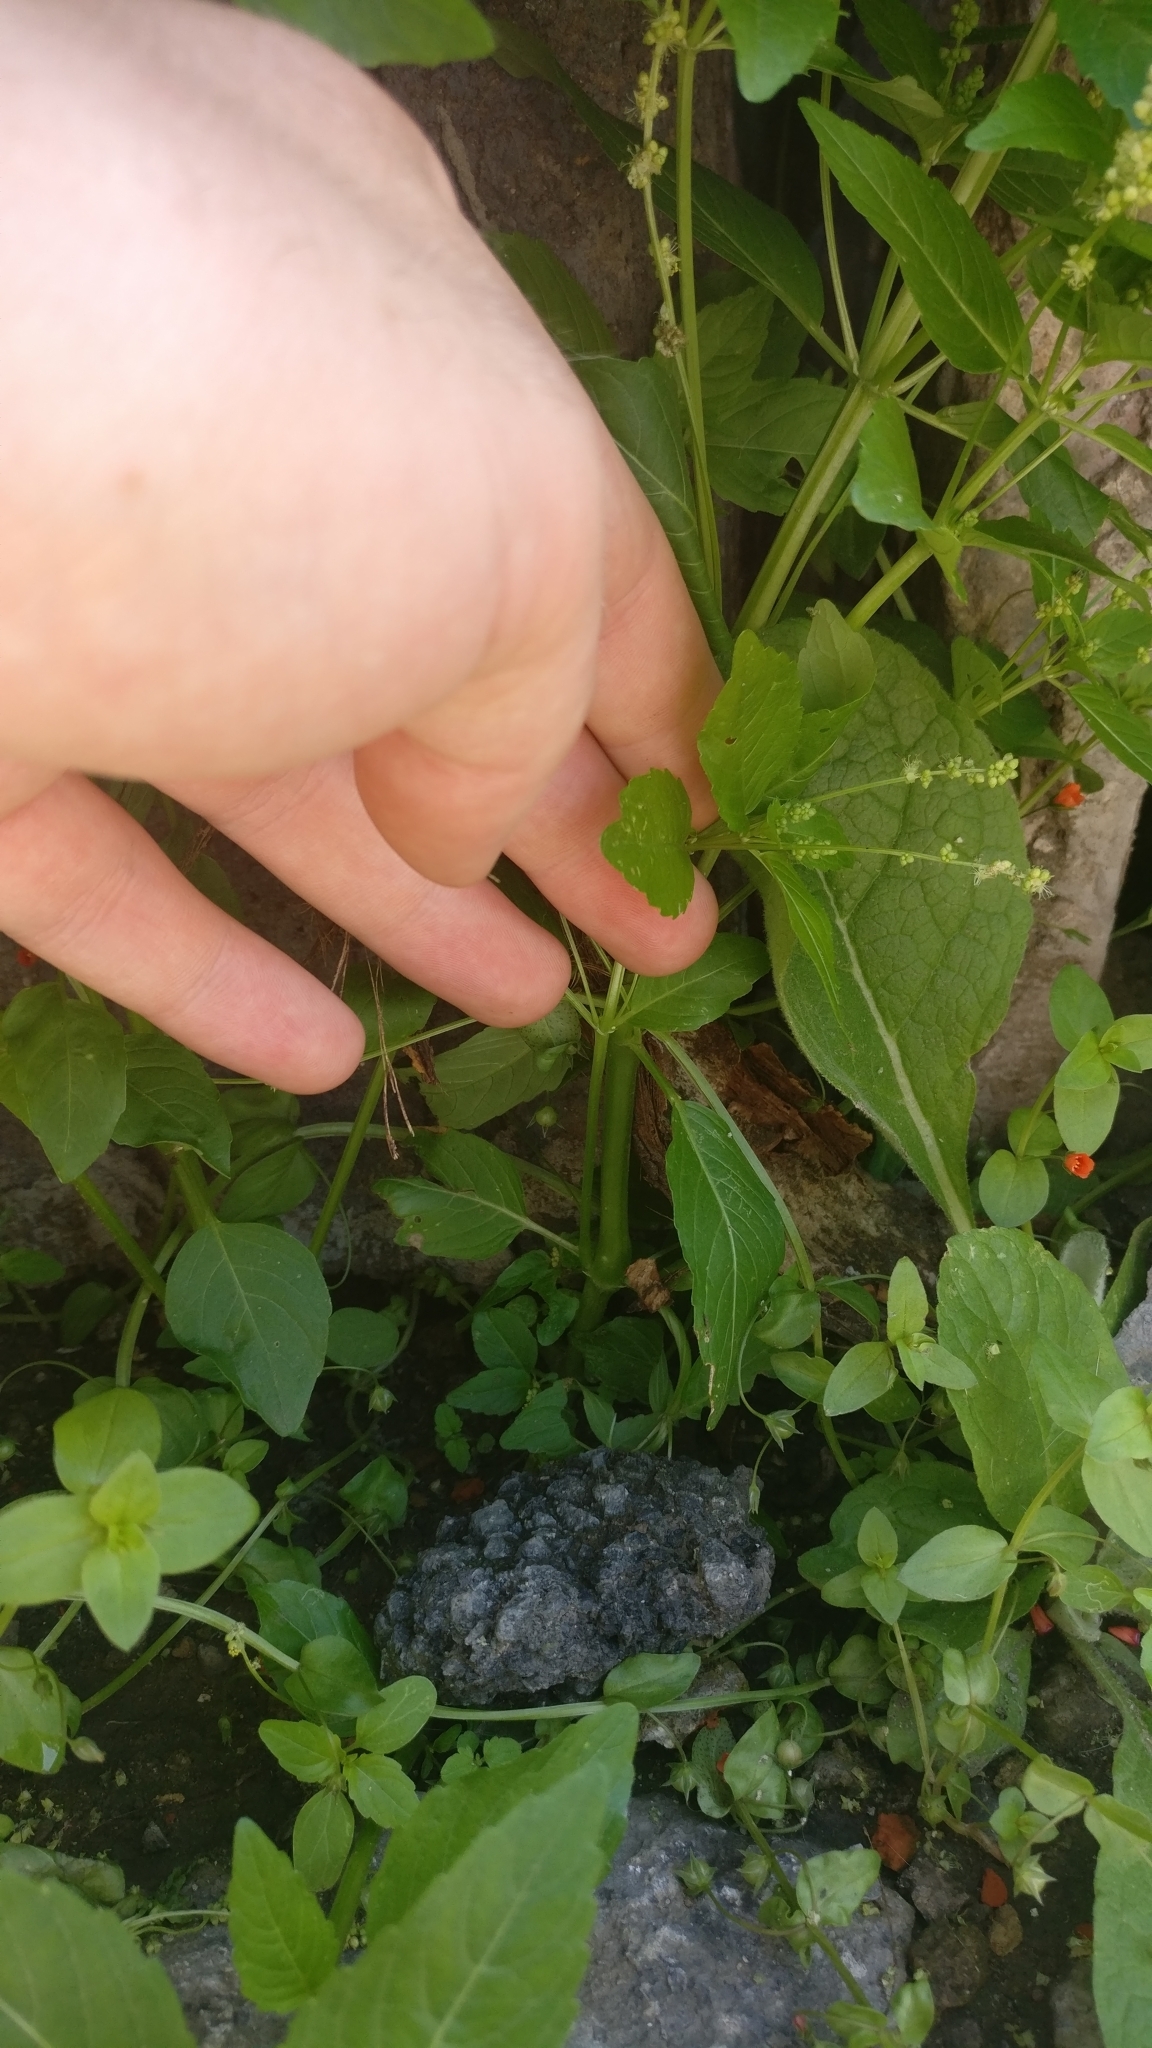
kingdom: Plantae
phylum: Tracheophyta
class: Magnoliopsida
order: Malpighiales
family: Euphorbiaceae
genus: Mercurialis
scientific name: Mercurialis annua
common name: Annual mercury
